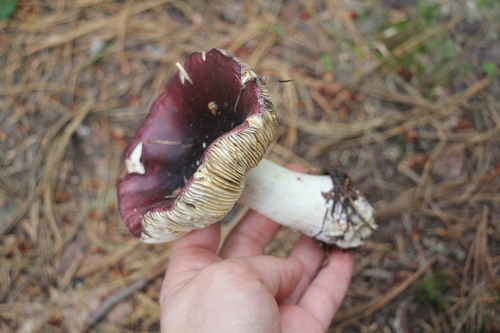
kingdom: Fungi
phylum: Basidiomycota
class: Agaricomycetes
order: Russulales
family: Russulaceae
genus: Russula
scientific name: Russula
